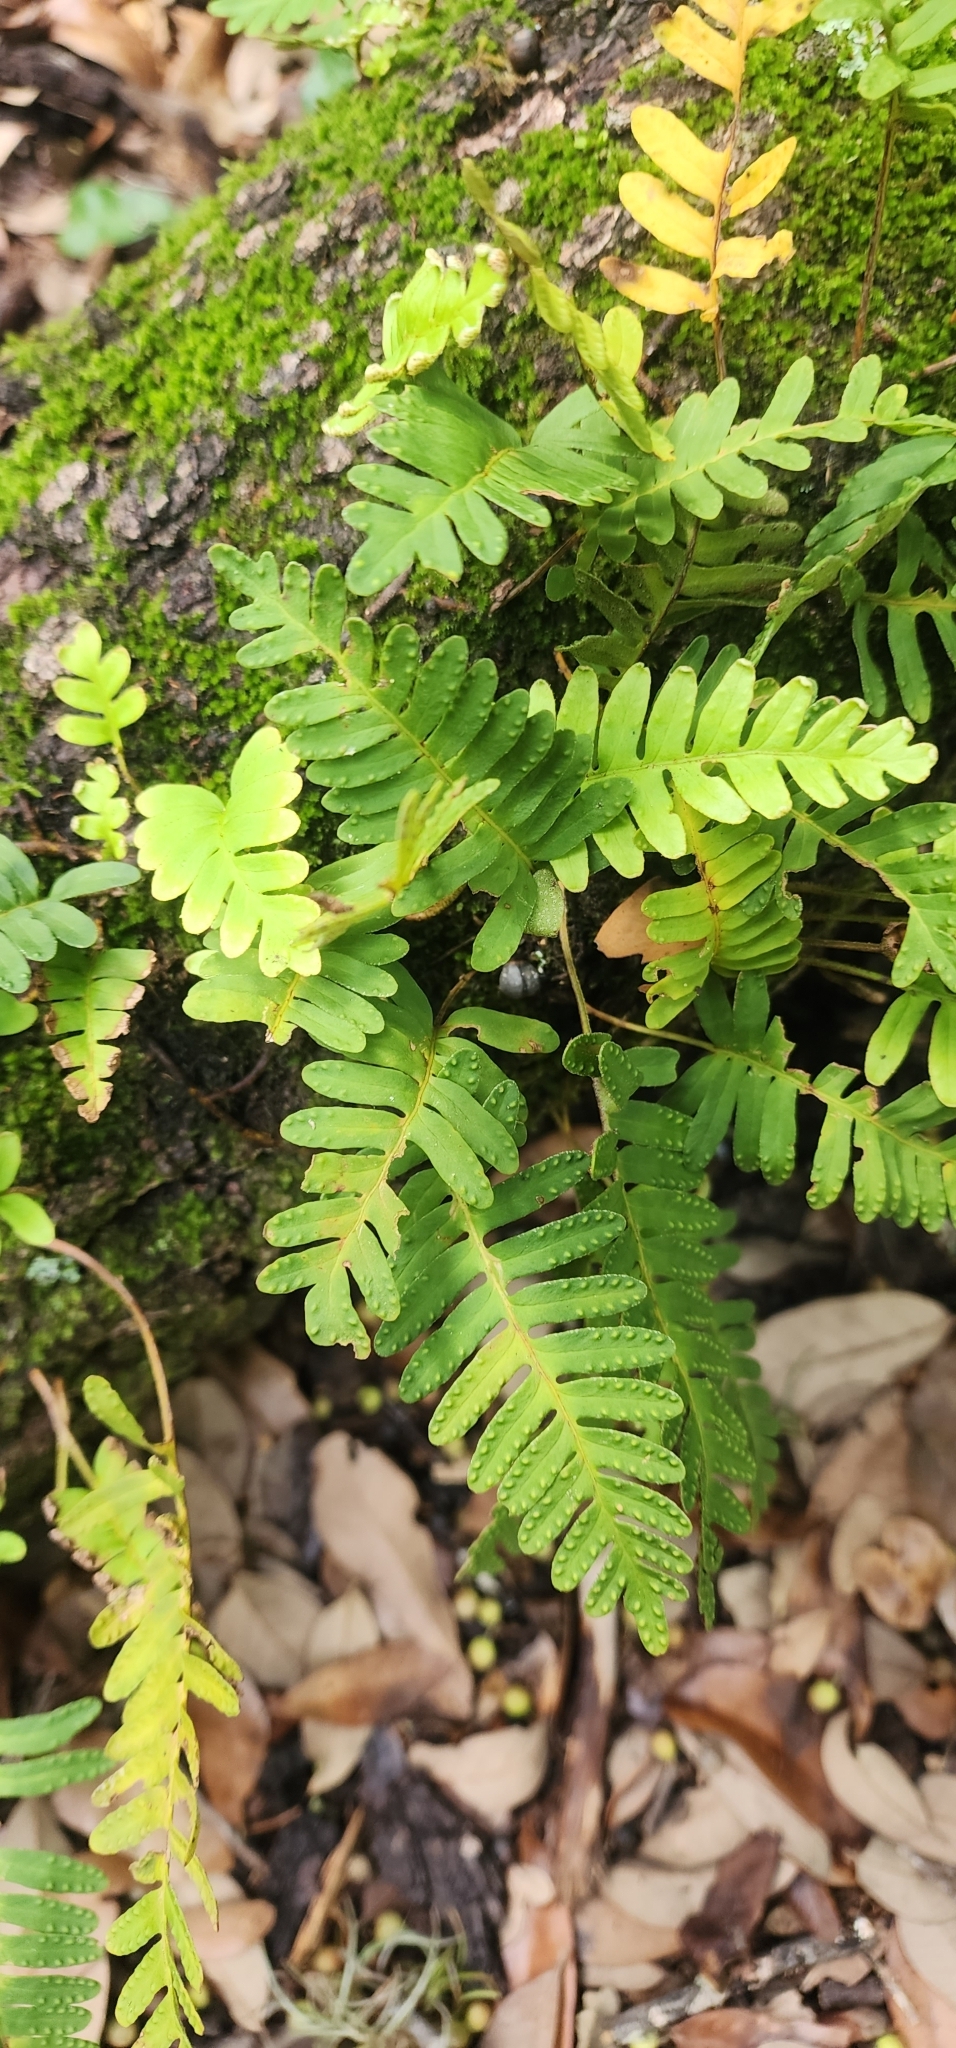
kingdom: Plantae
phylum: Tracheophyta
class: Polypodiopsida
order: Polypodiales
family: Polypodiaceae
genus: Pleopeltis
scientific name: Pleopeltis michauxiana
